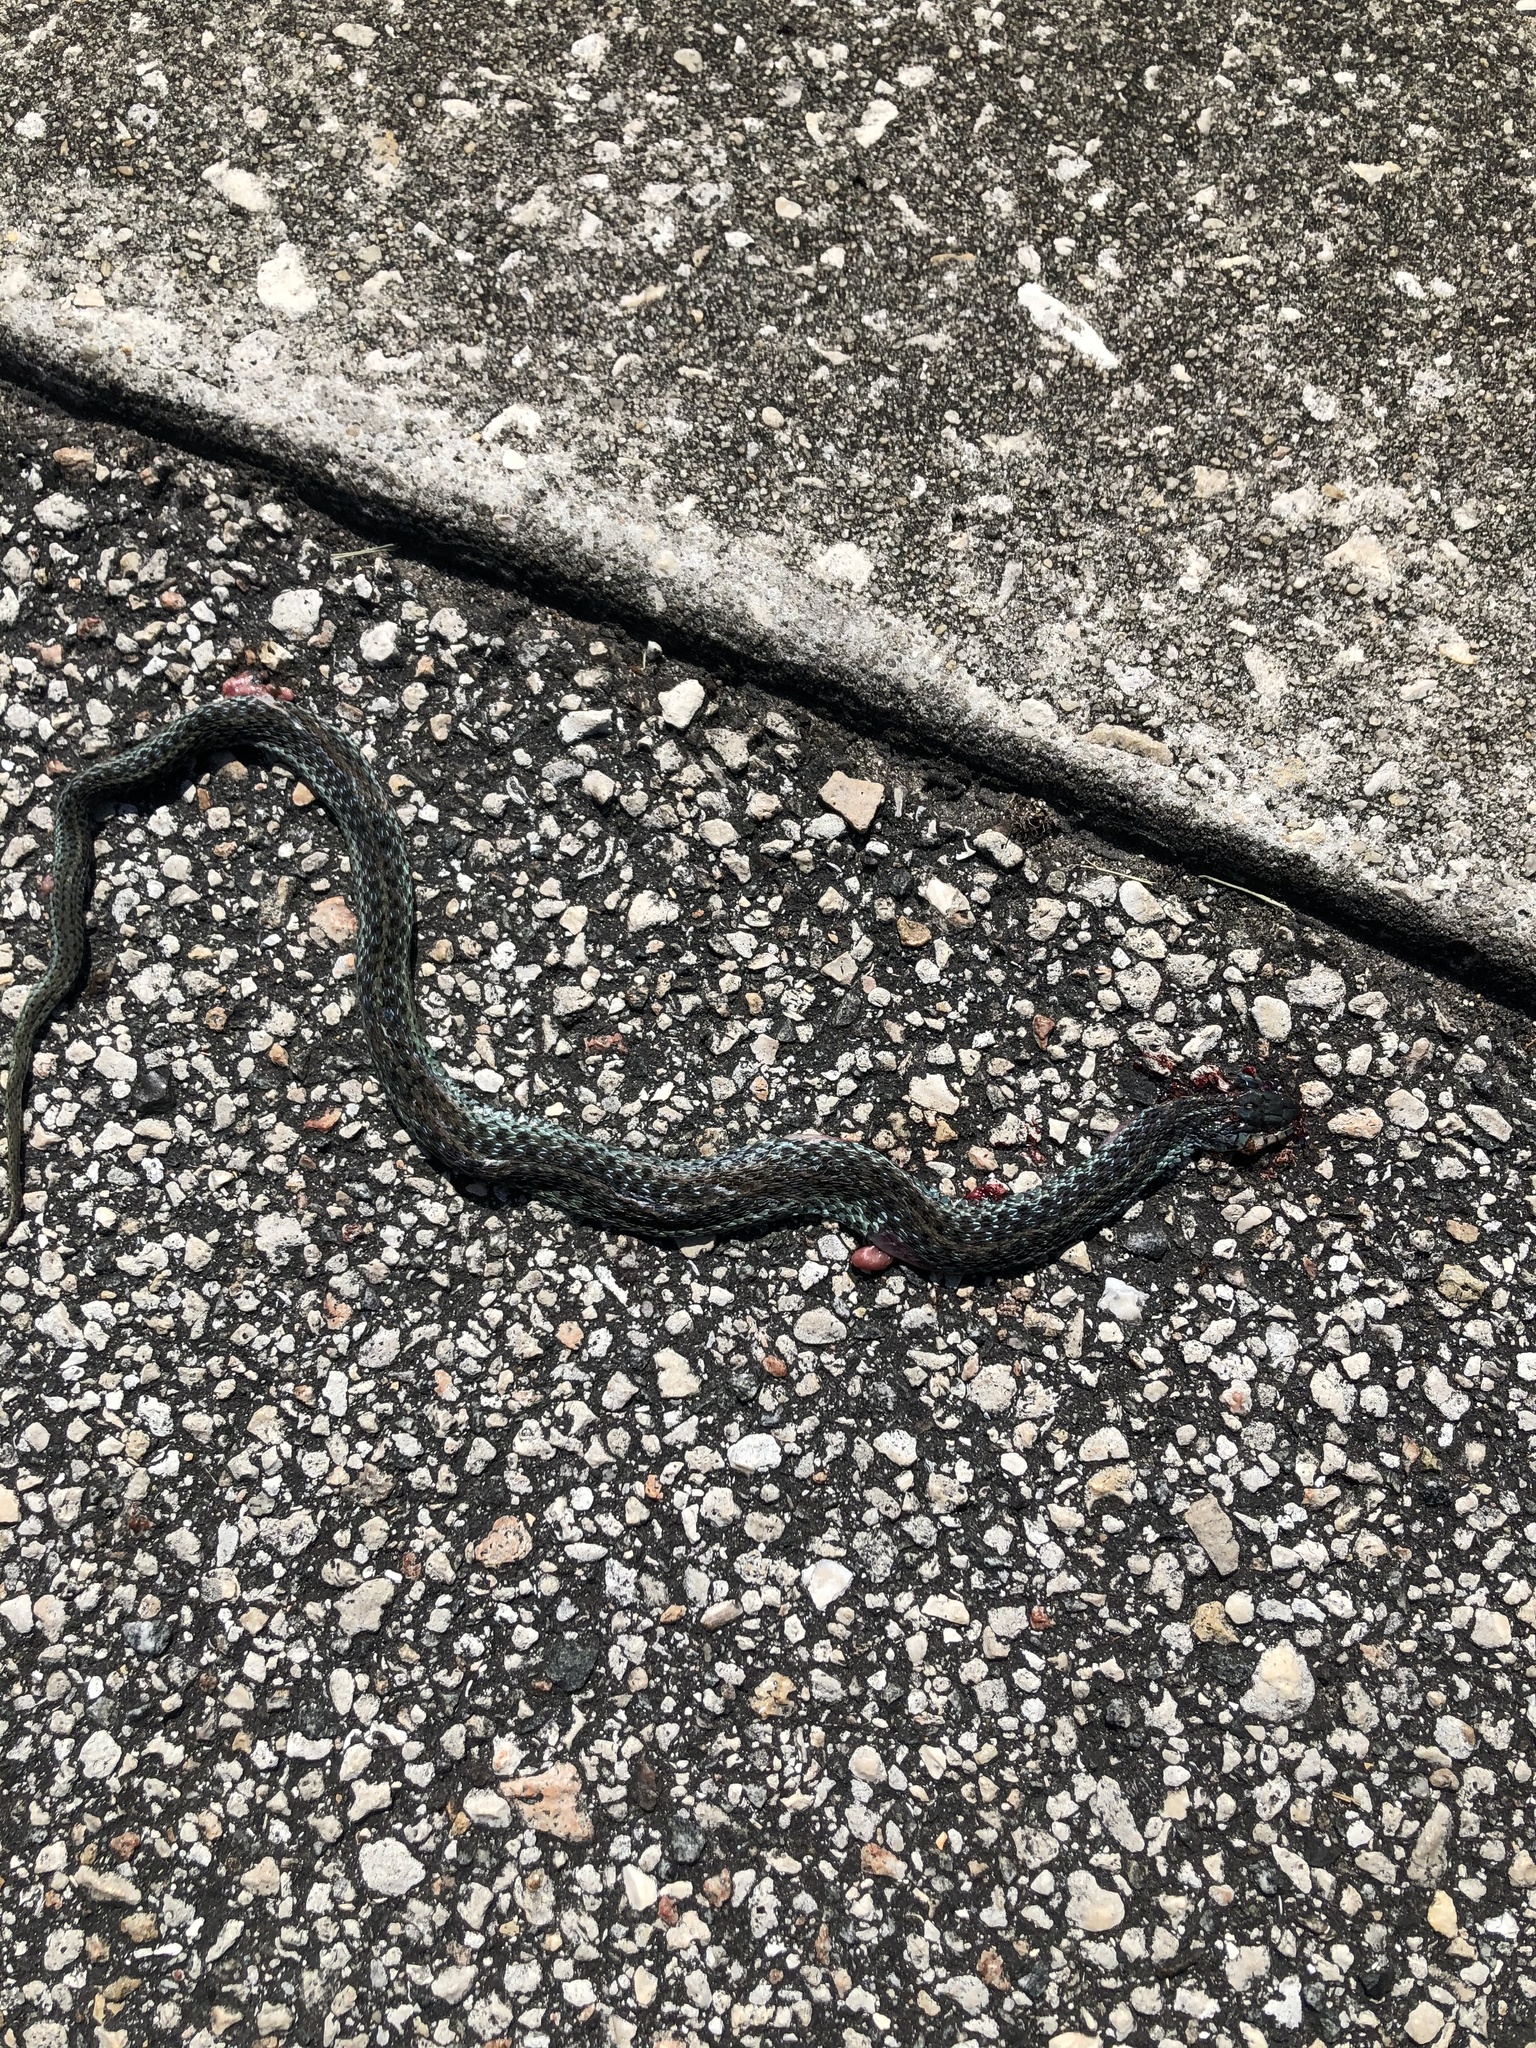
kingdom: Animalia
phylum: Chordata
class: Squamata
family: Colubridae
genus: Thamnophis
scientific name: Thamnophis sirtalis
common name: Common garter snake
